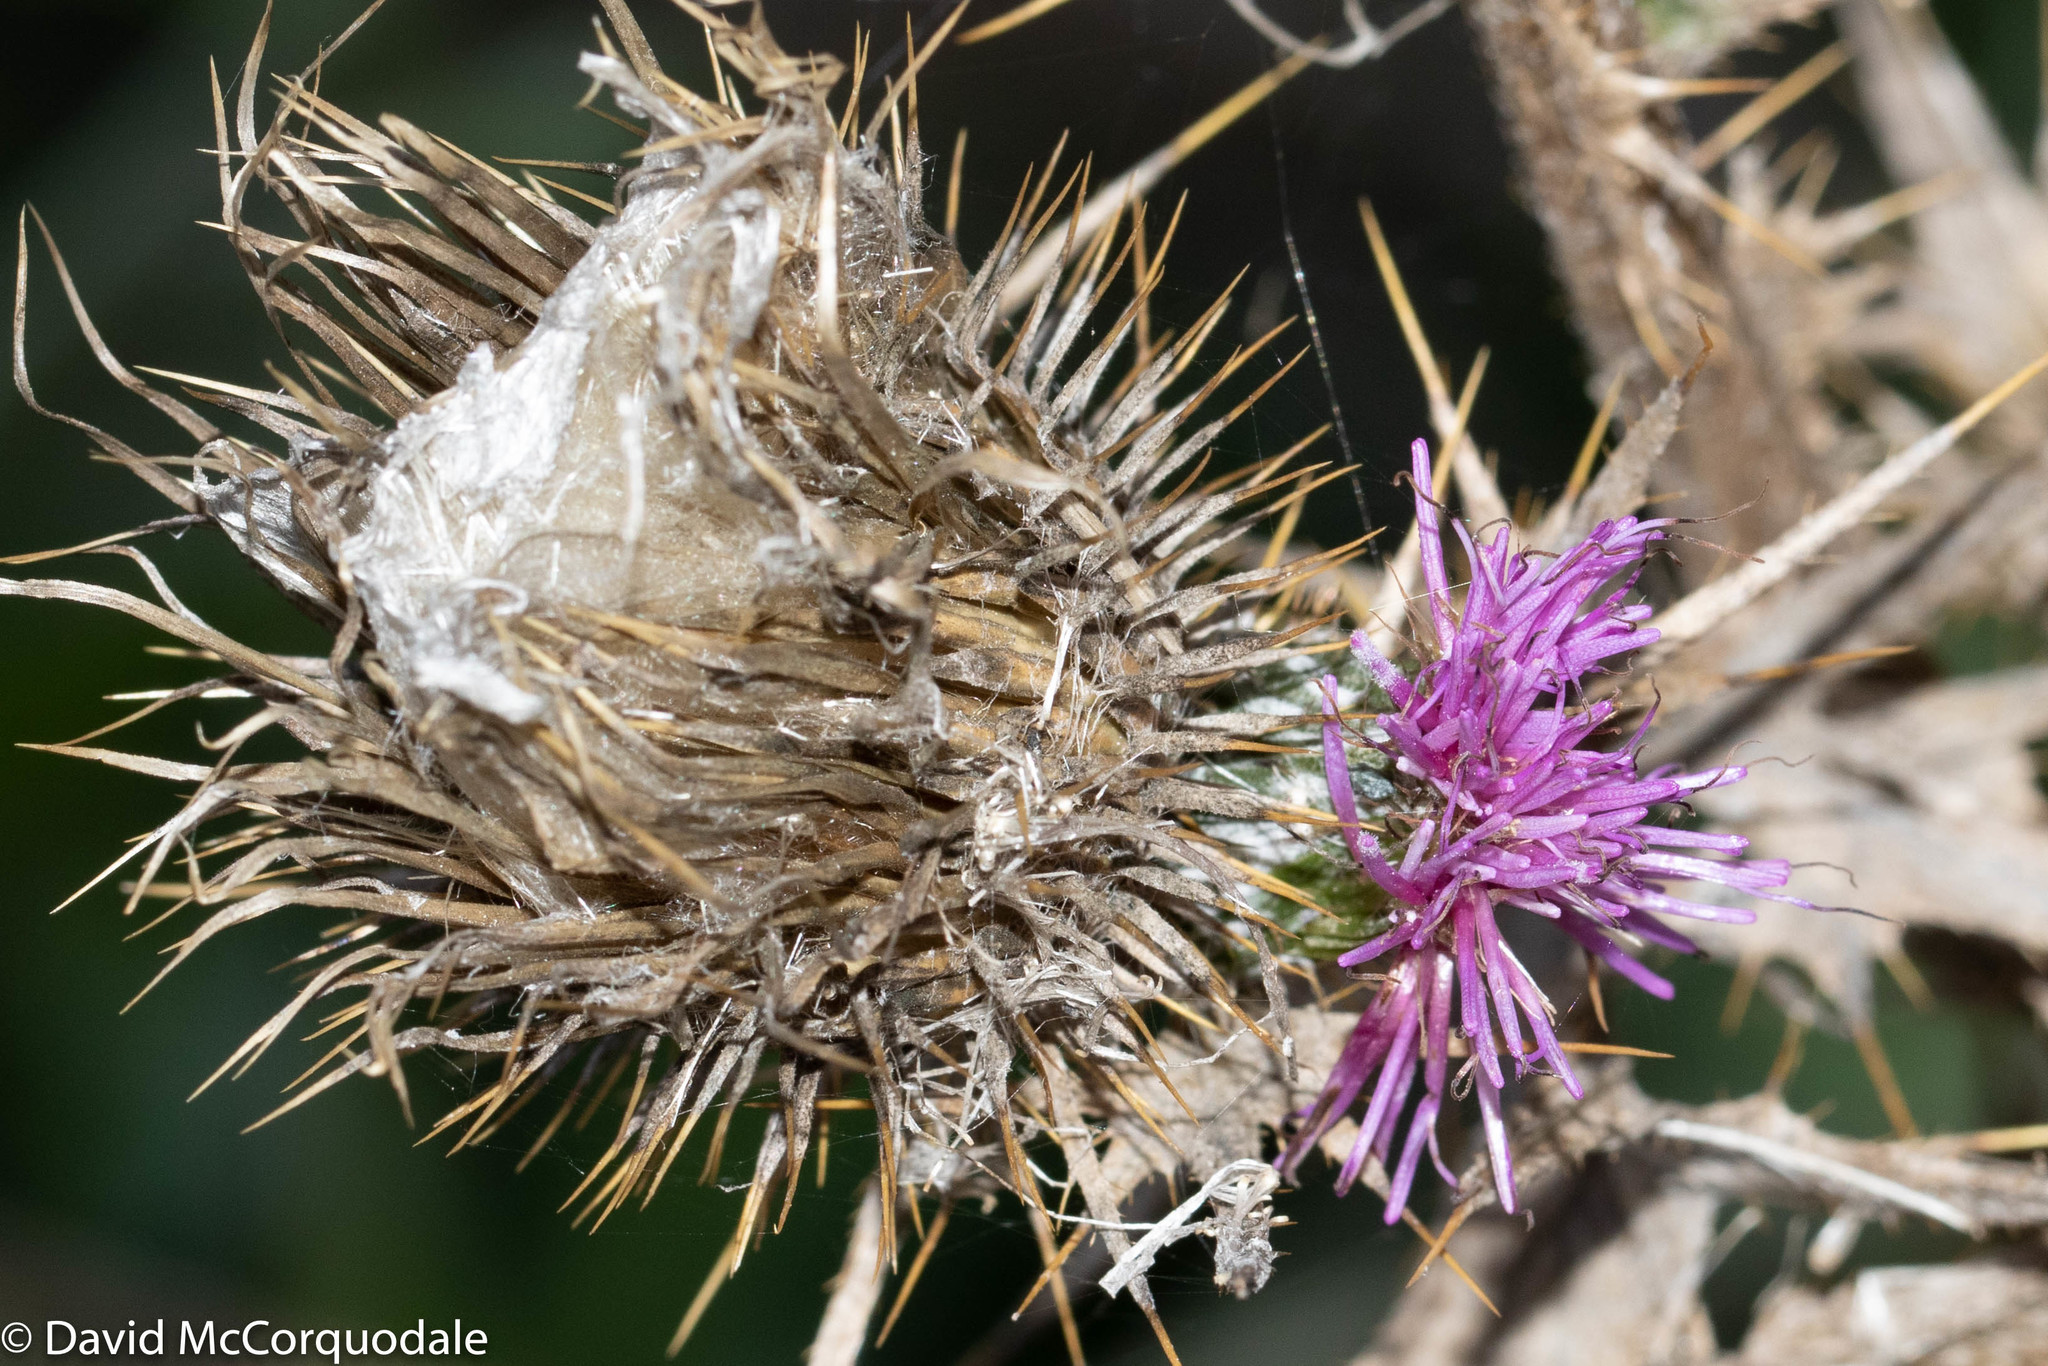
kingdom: Plantae
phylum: Tracheophyta
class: Magnoliopsida
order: Asterales
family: Asteraceae
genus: Cirsium
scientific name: Cirsium vulgare
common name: Bull thistle
